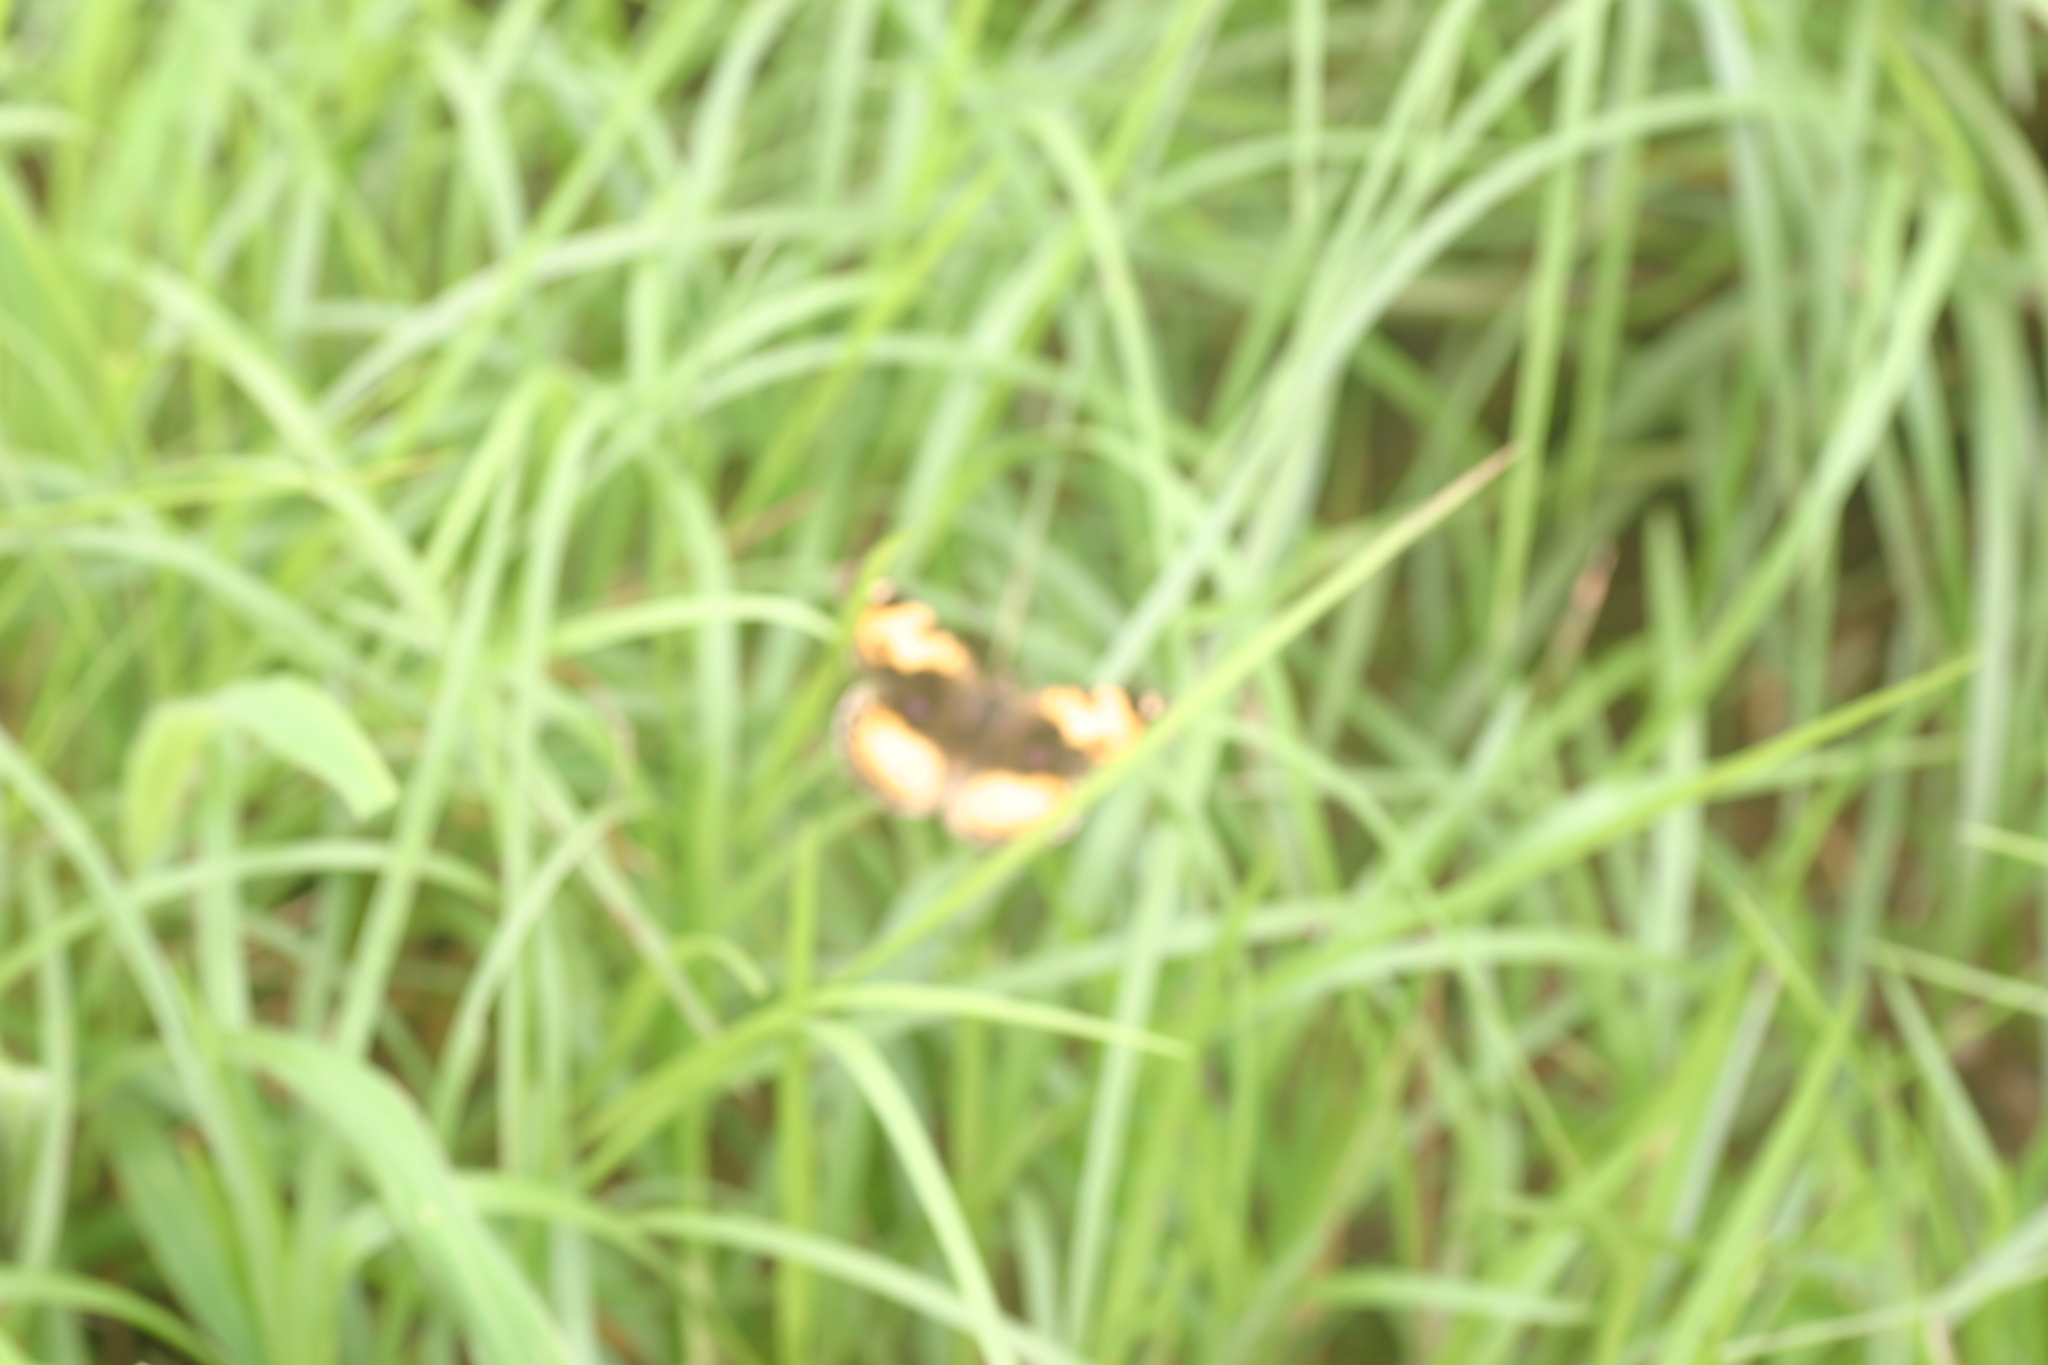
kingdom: Animalia
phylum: Arthropoda
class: Insecta
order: Lepidoptera
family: Nymphalidae
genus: Junonia
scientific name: Junonia hierta
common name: Yellow pansy
